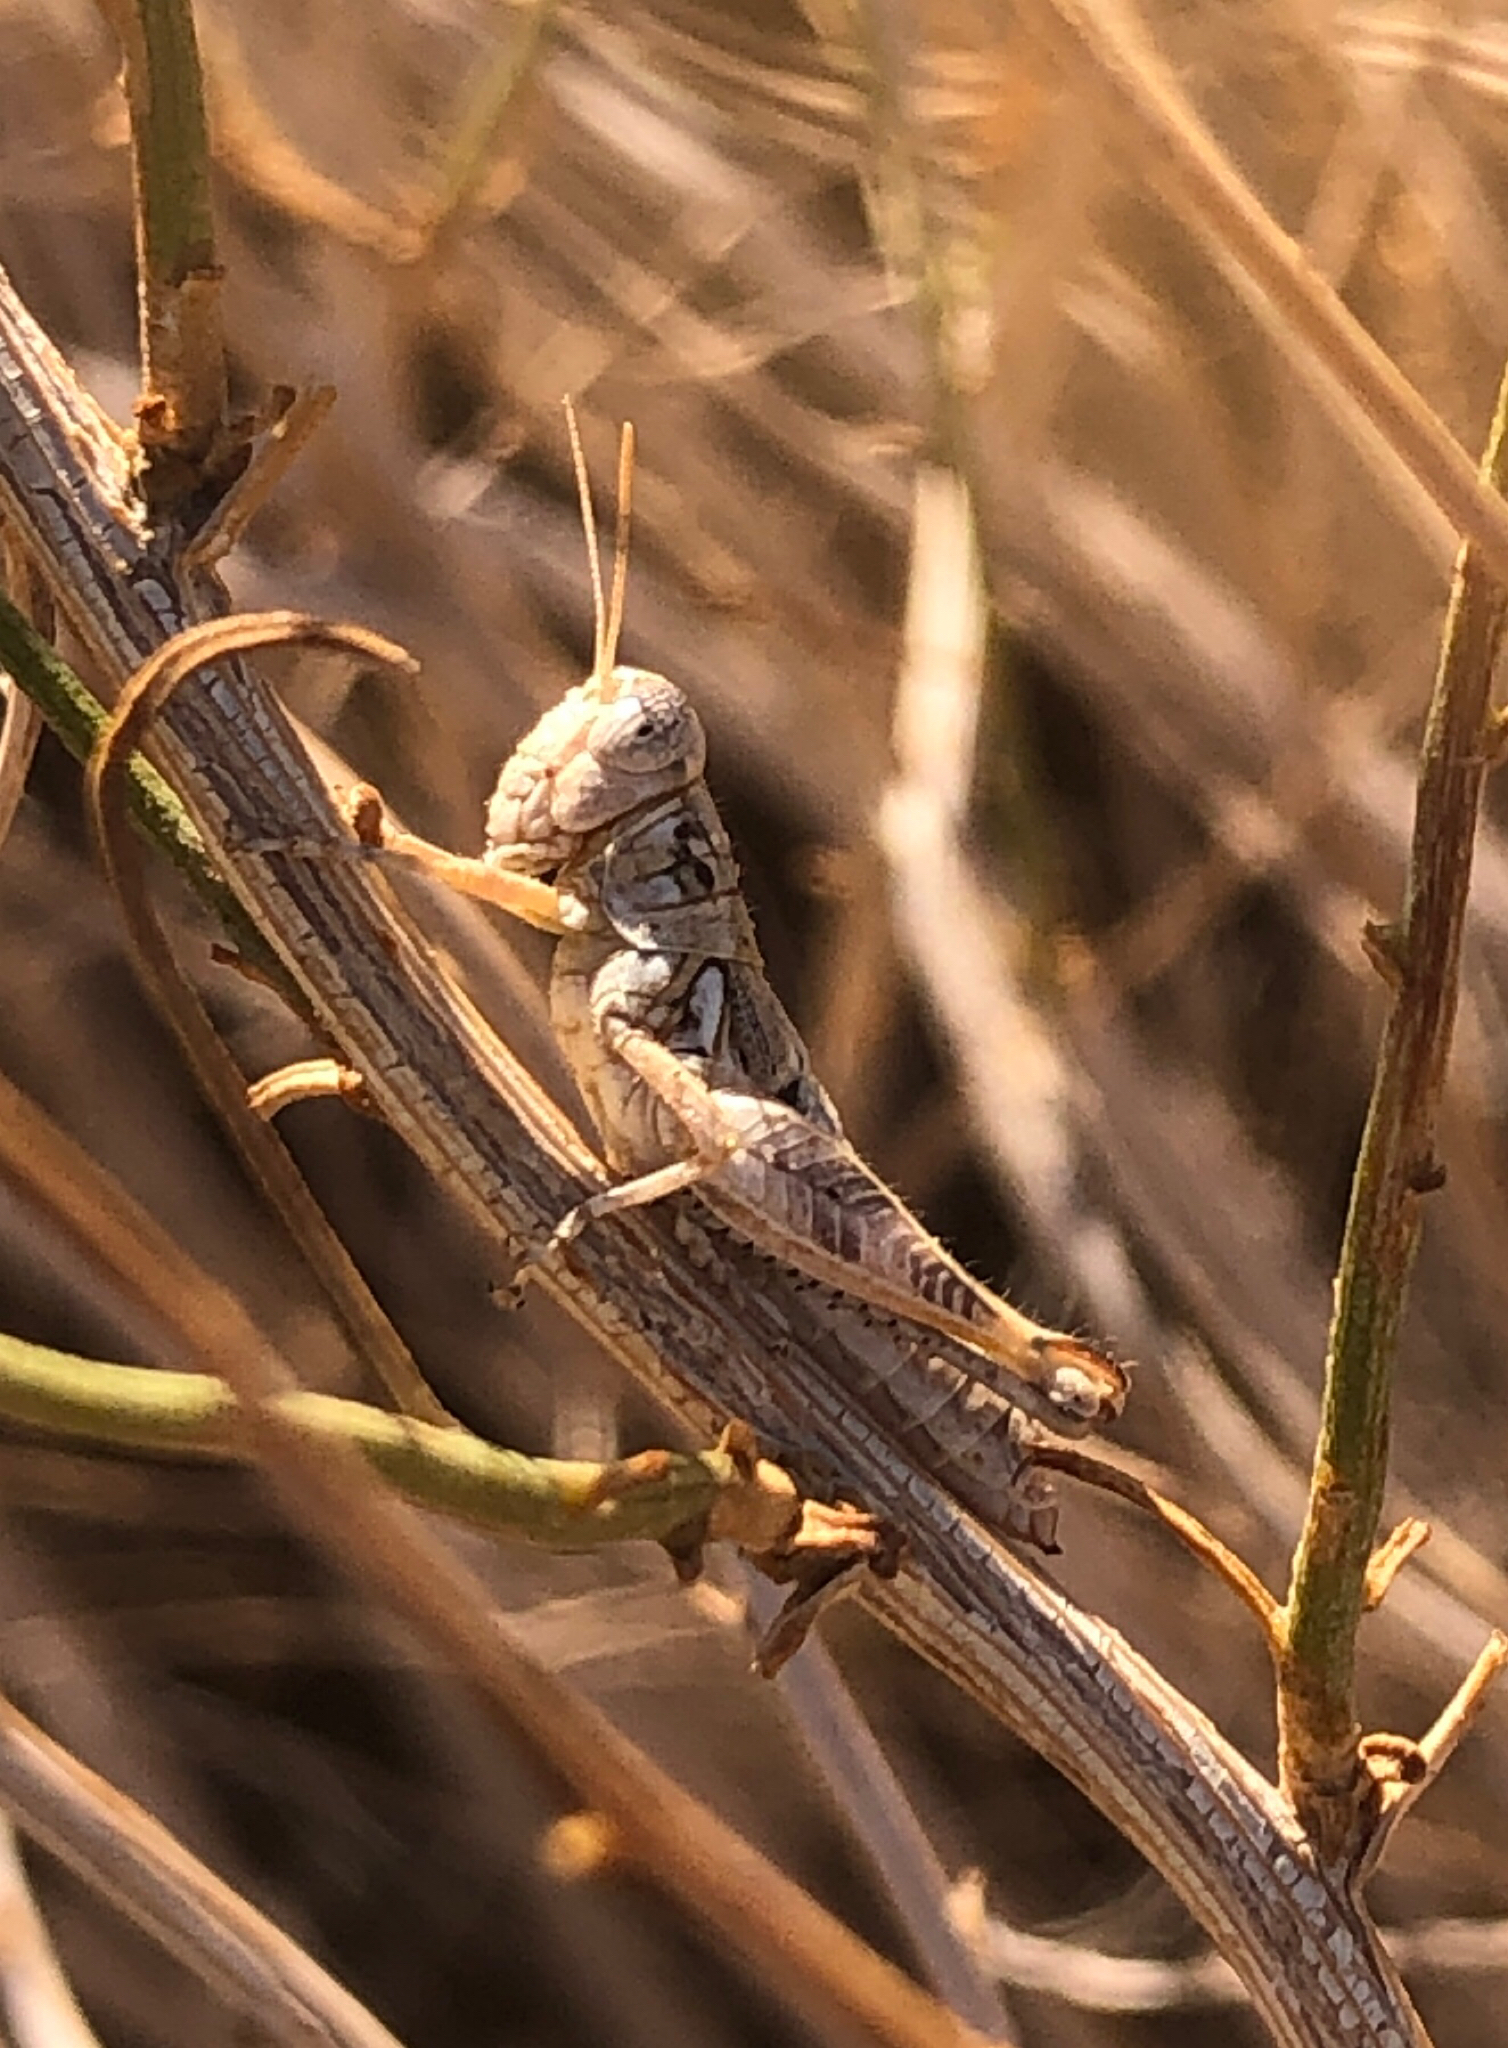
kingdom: Animalia
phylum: Arthropoda
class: Insecta
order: Orthoptera
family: Acrididae
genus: Melanoplus
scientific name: Melanoplus aridus
